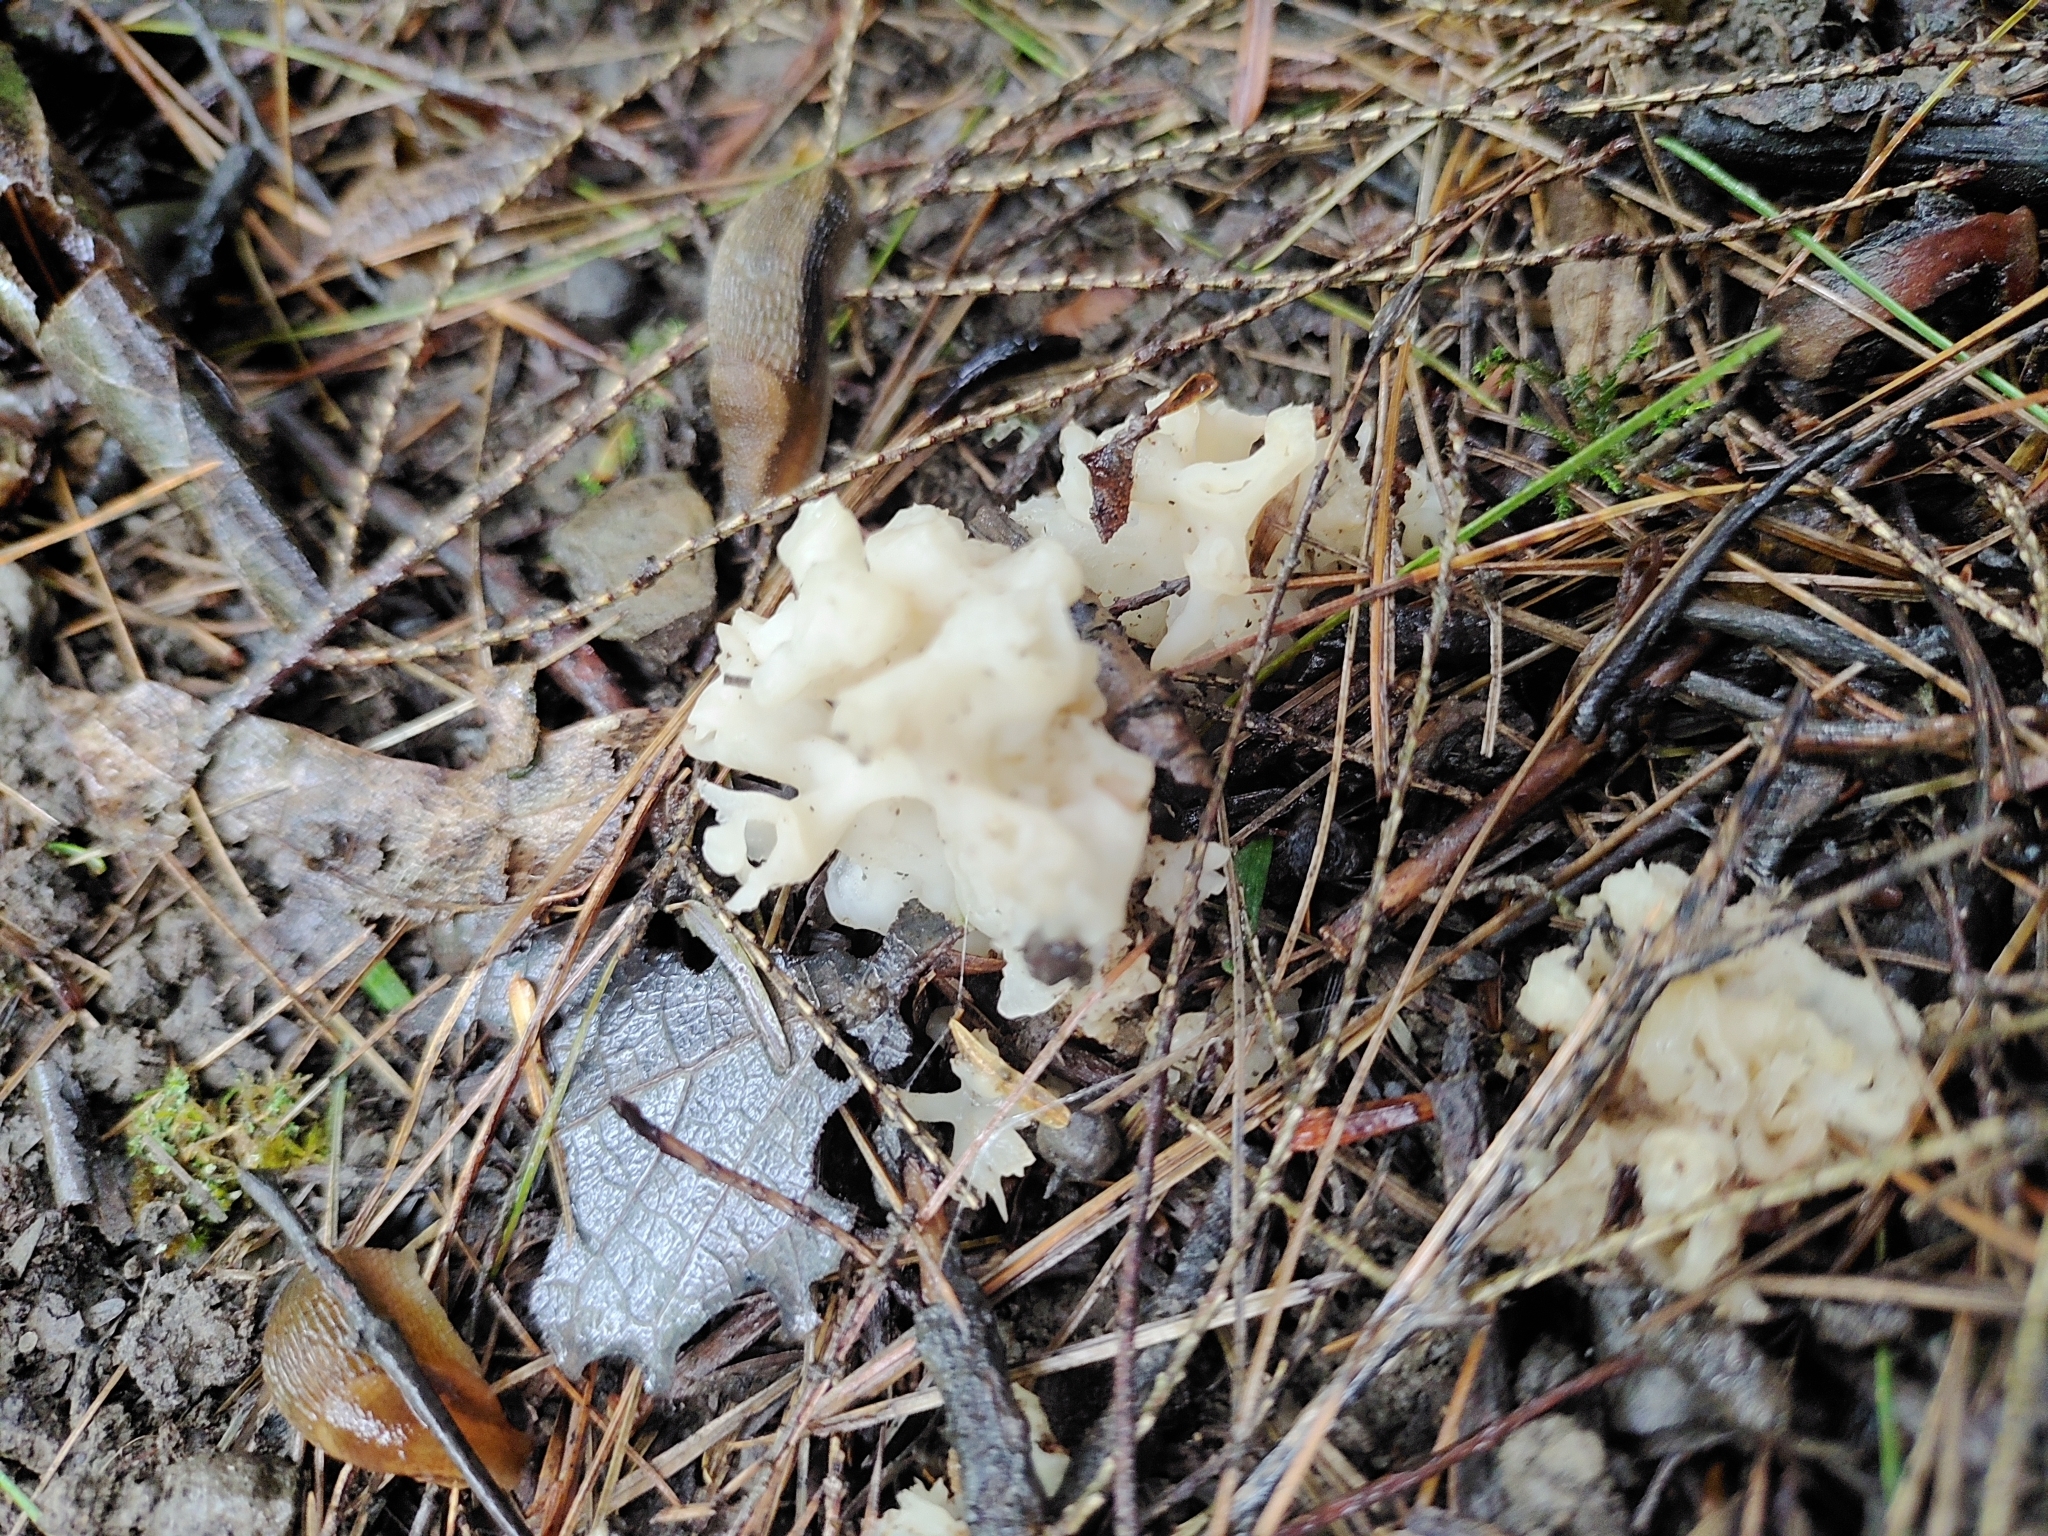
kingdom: Fungi
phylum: Basidiomycota
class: Agaricomycetes
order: Sebacinales
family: Sebacinaceae
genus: Sebacina
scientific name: Sebacina sparassoidea
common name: White coral jelly fungus
